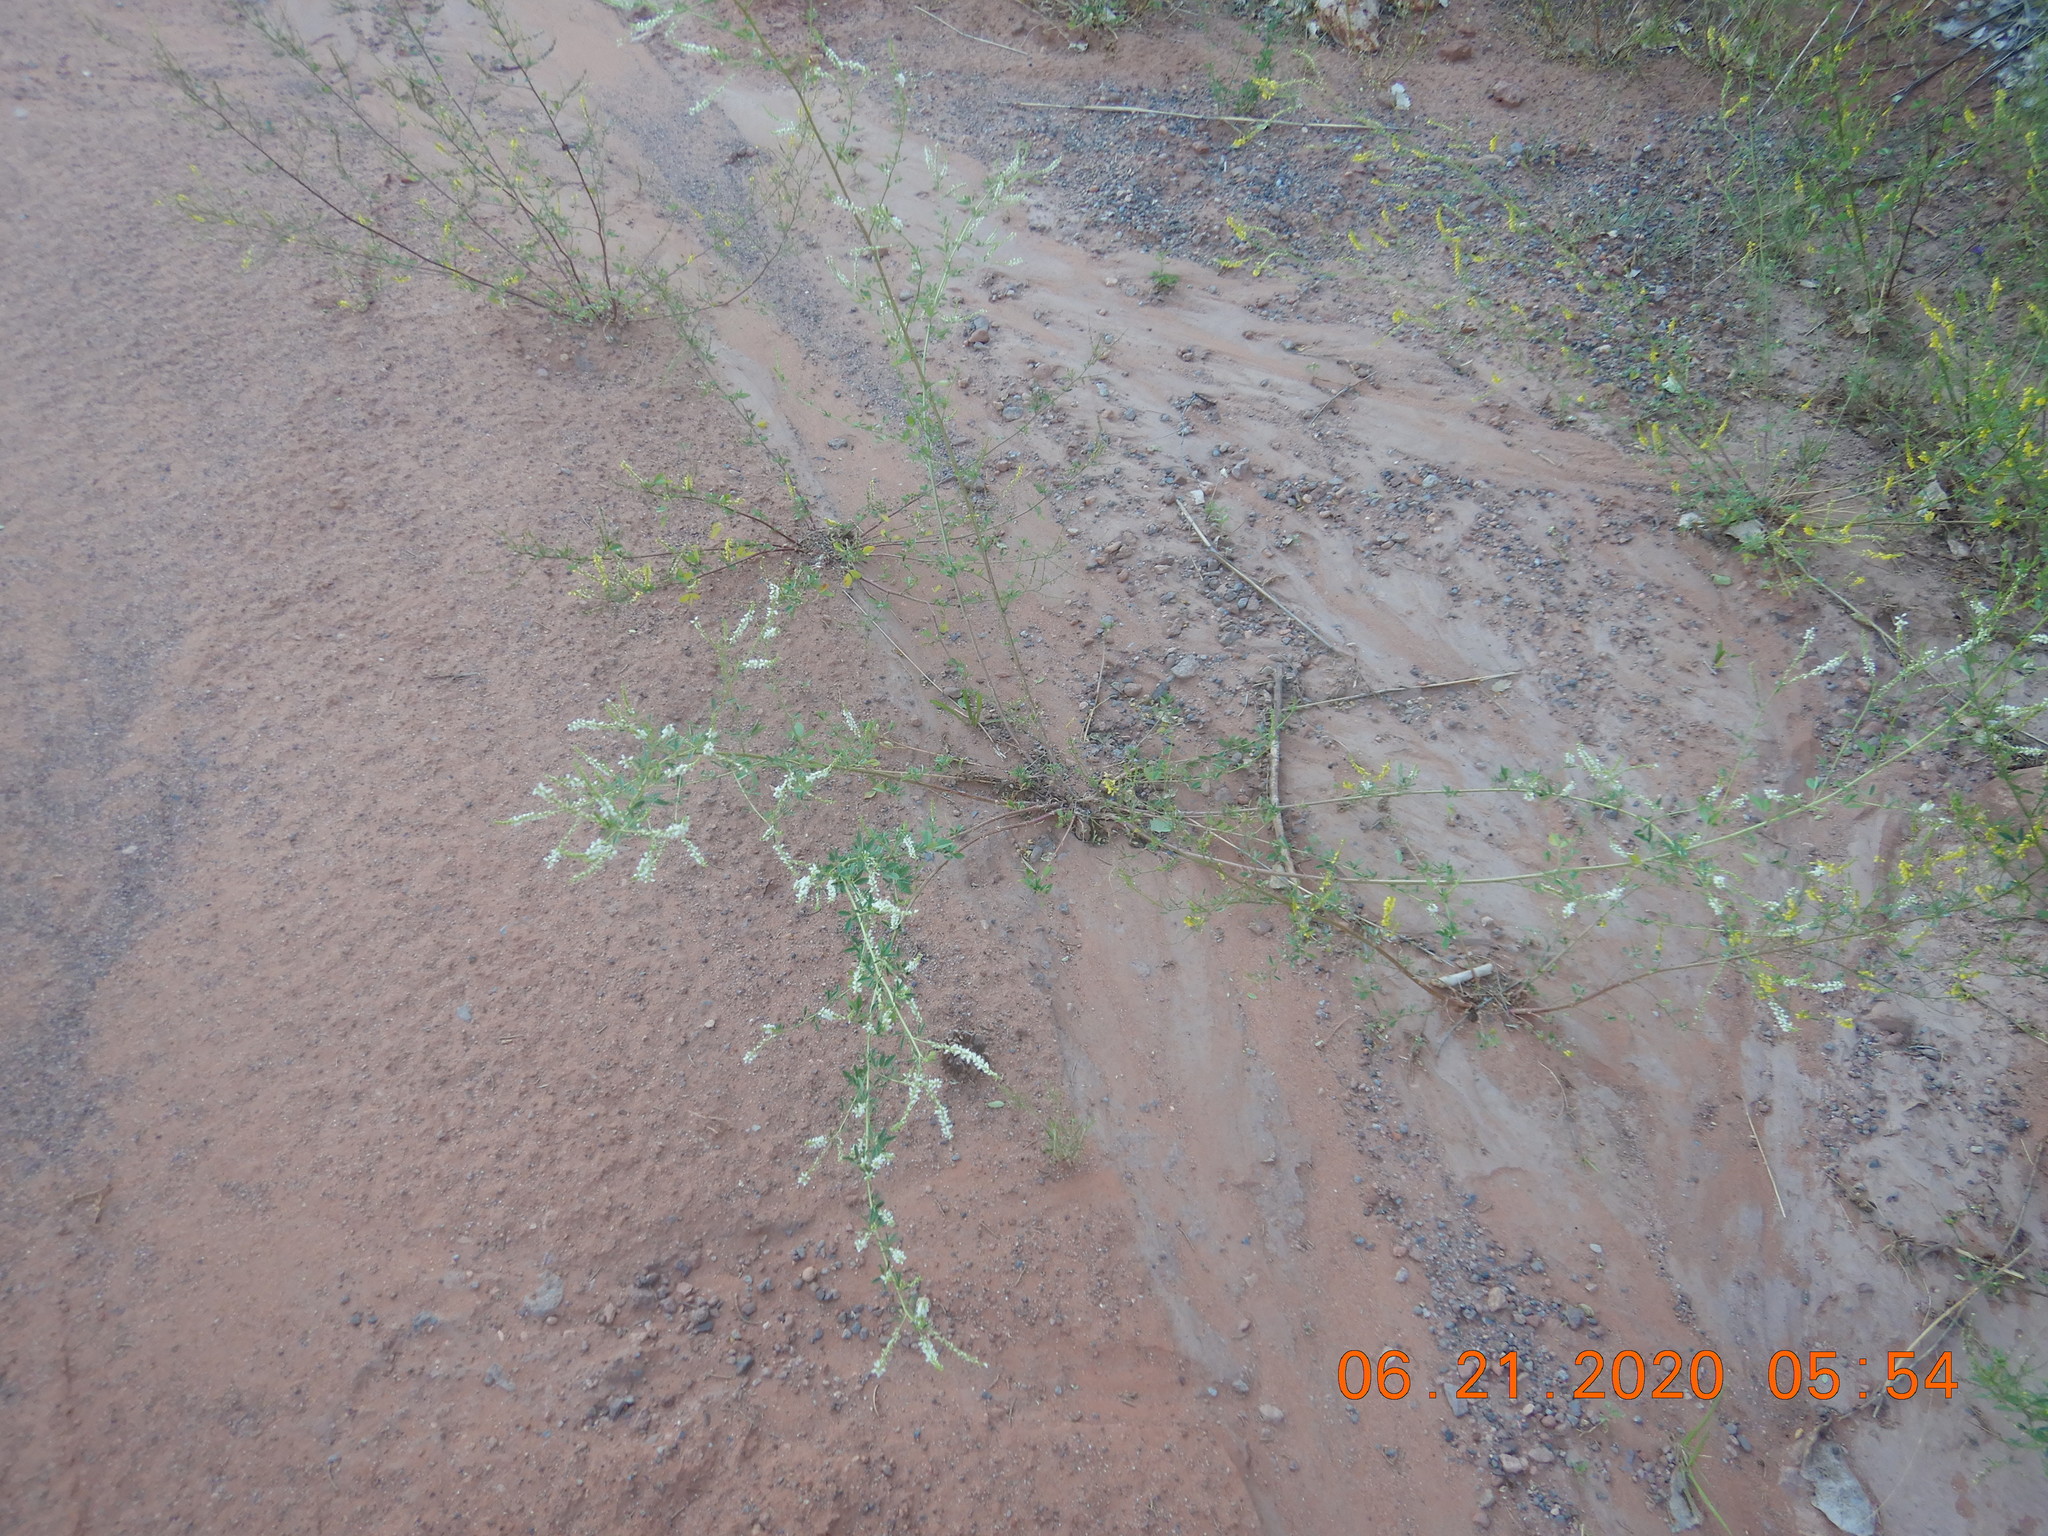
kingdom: Plantae
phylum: Tracheophyta
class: Magnoliopsida
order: Fabales
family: Fabaceae
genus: Melilotus
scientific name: Melilotus albus
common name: White melilot
